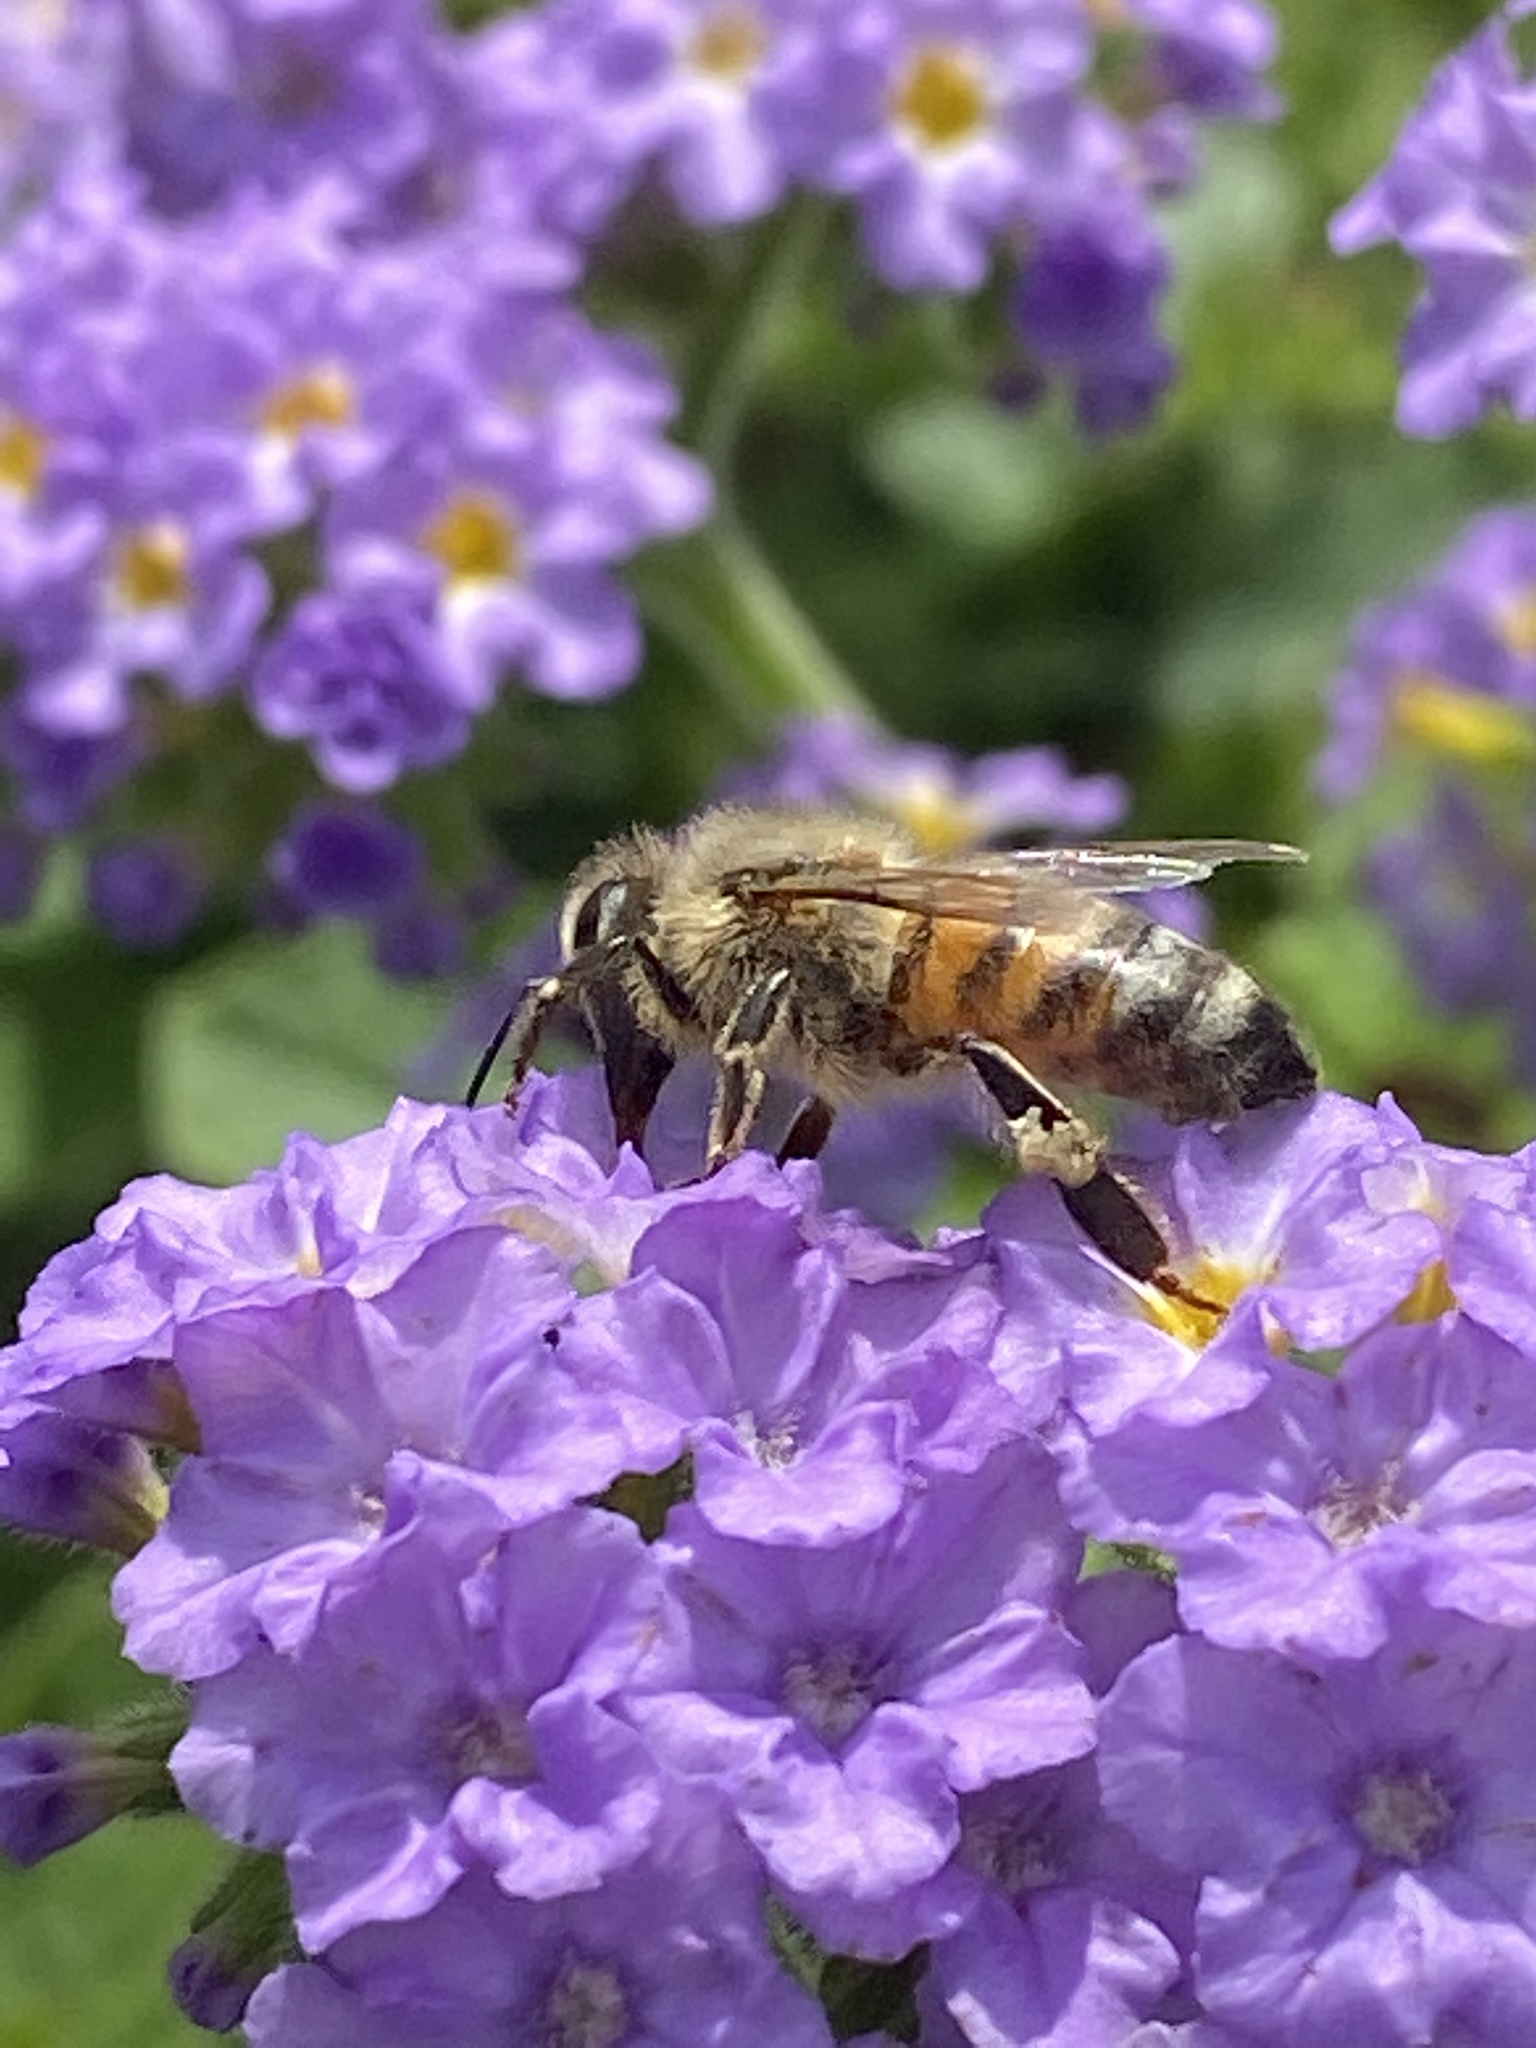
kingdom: Animalia
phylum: Arthropoda
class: Insecta
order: Hymenoptera
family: Apidae
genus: Apis
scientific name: Apis mellifera
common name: Honey bee
